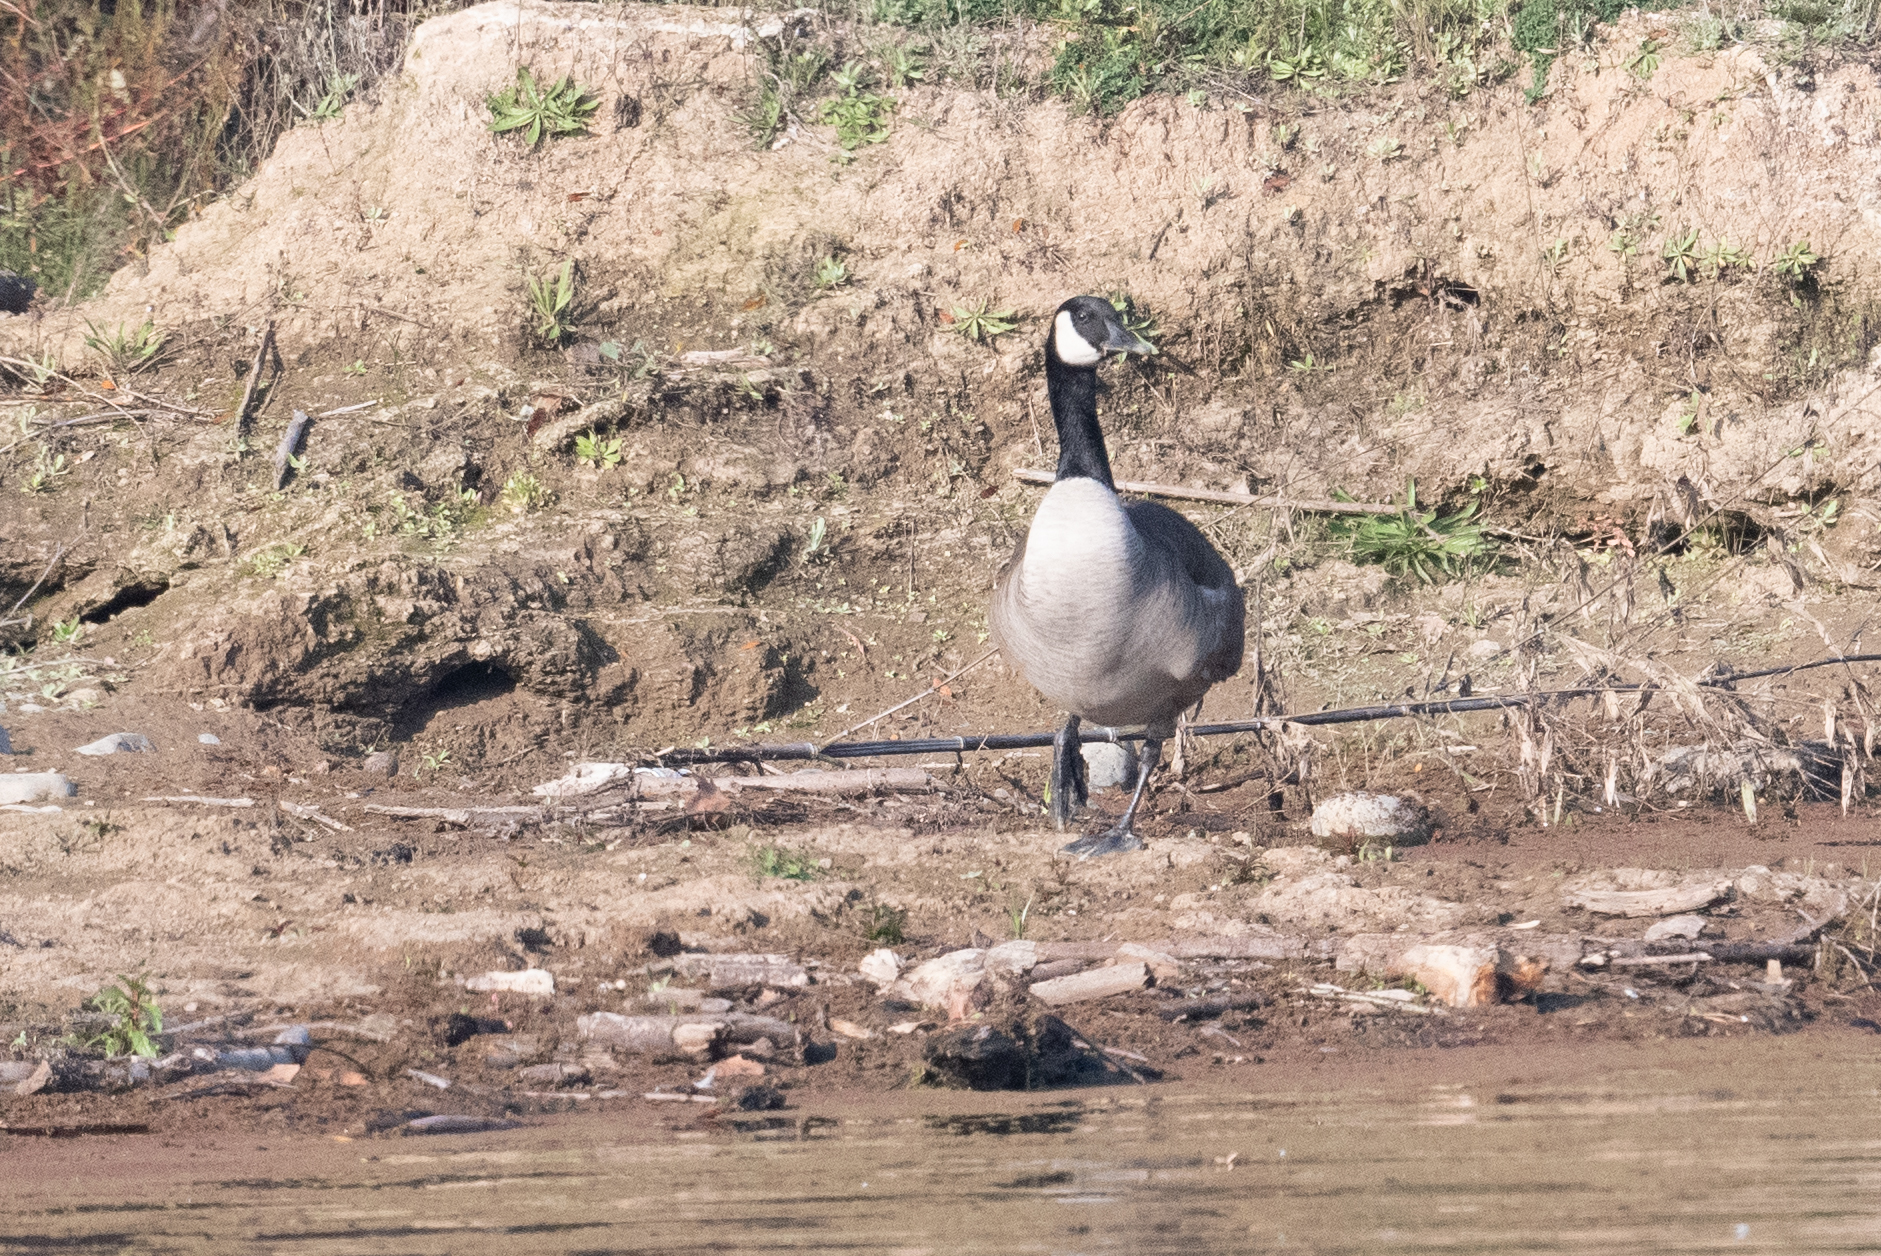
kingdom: Animalia
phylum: Chordata
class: Aves
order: Anseriformes
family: Anatidae
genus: Branta
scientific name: Branta canadensis
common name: Canada goose
